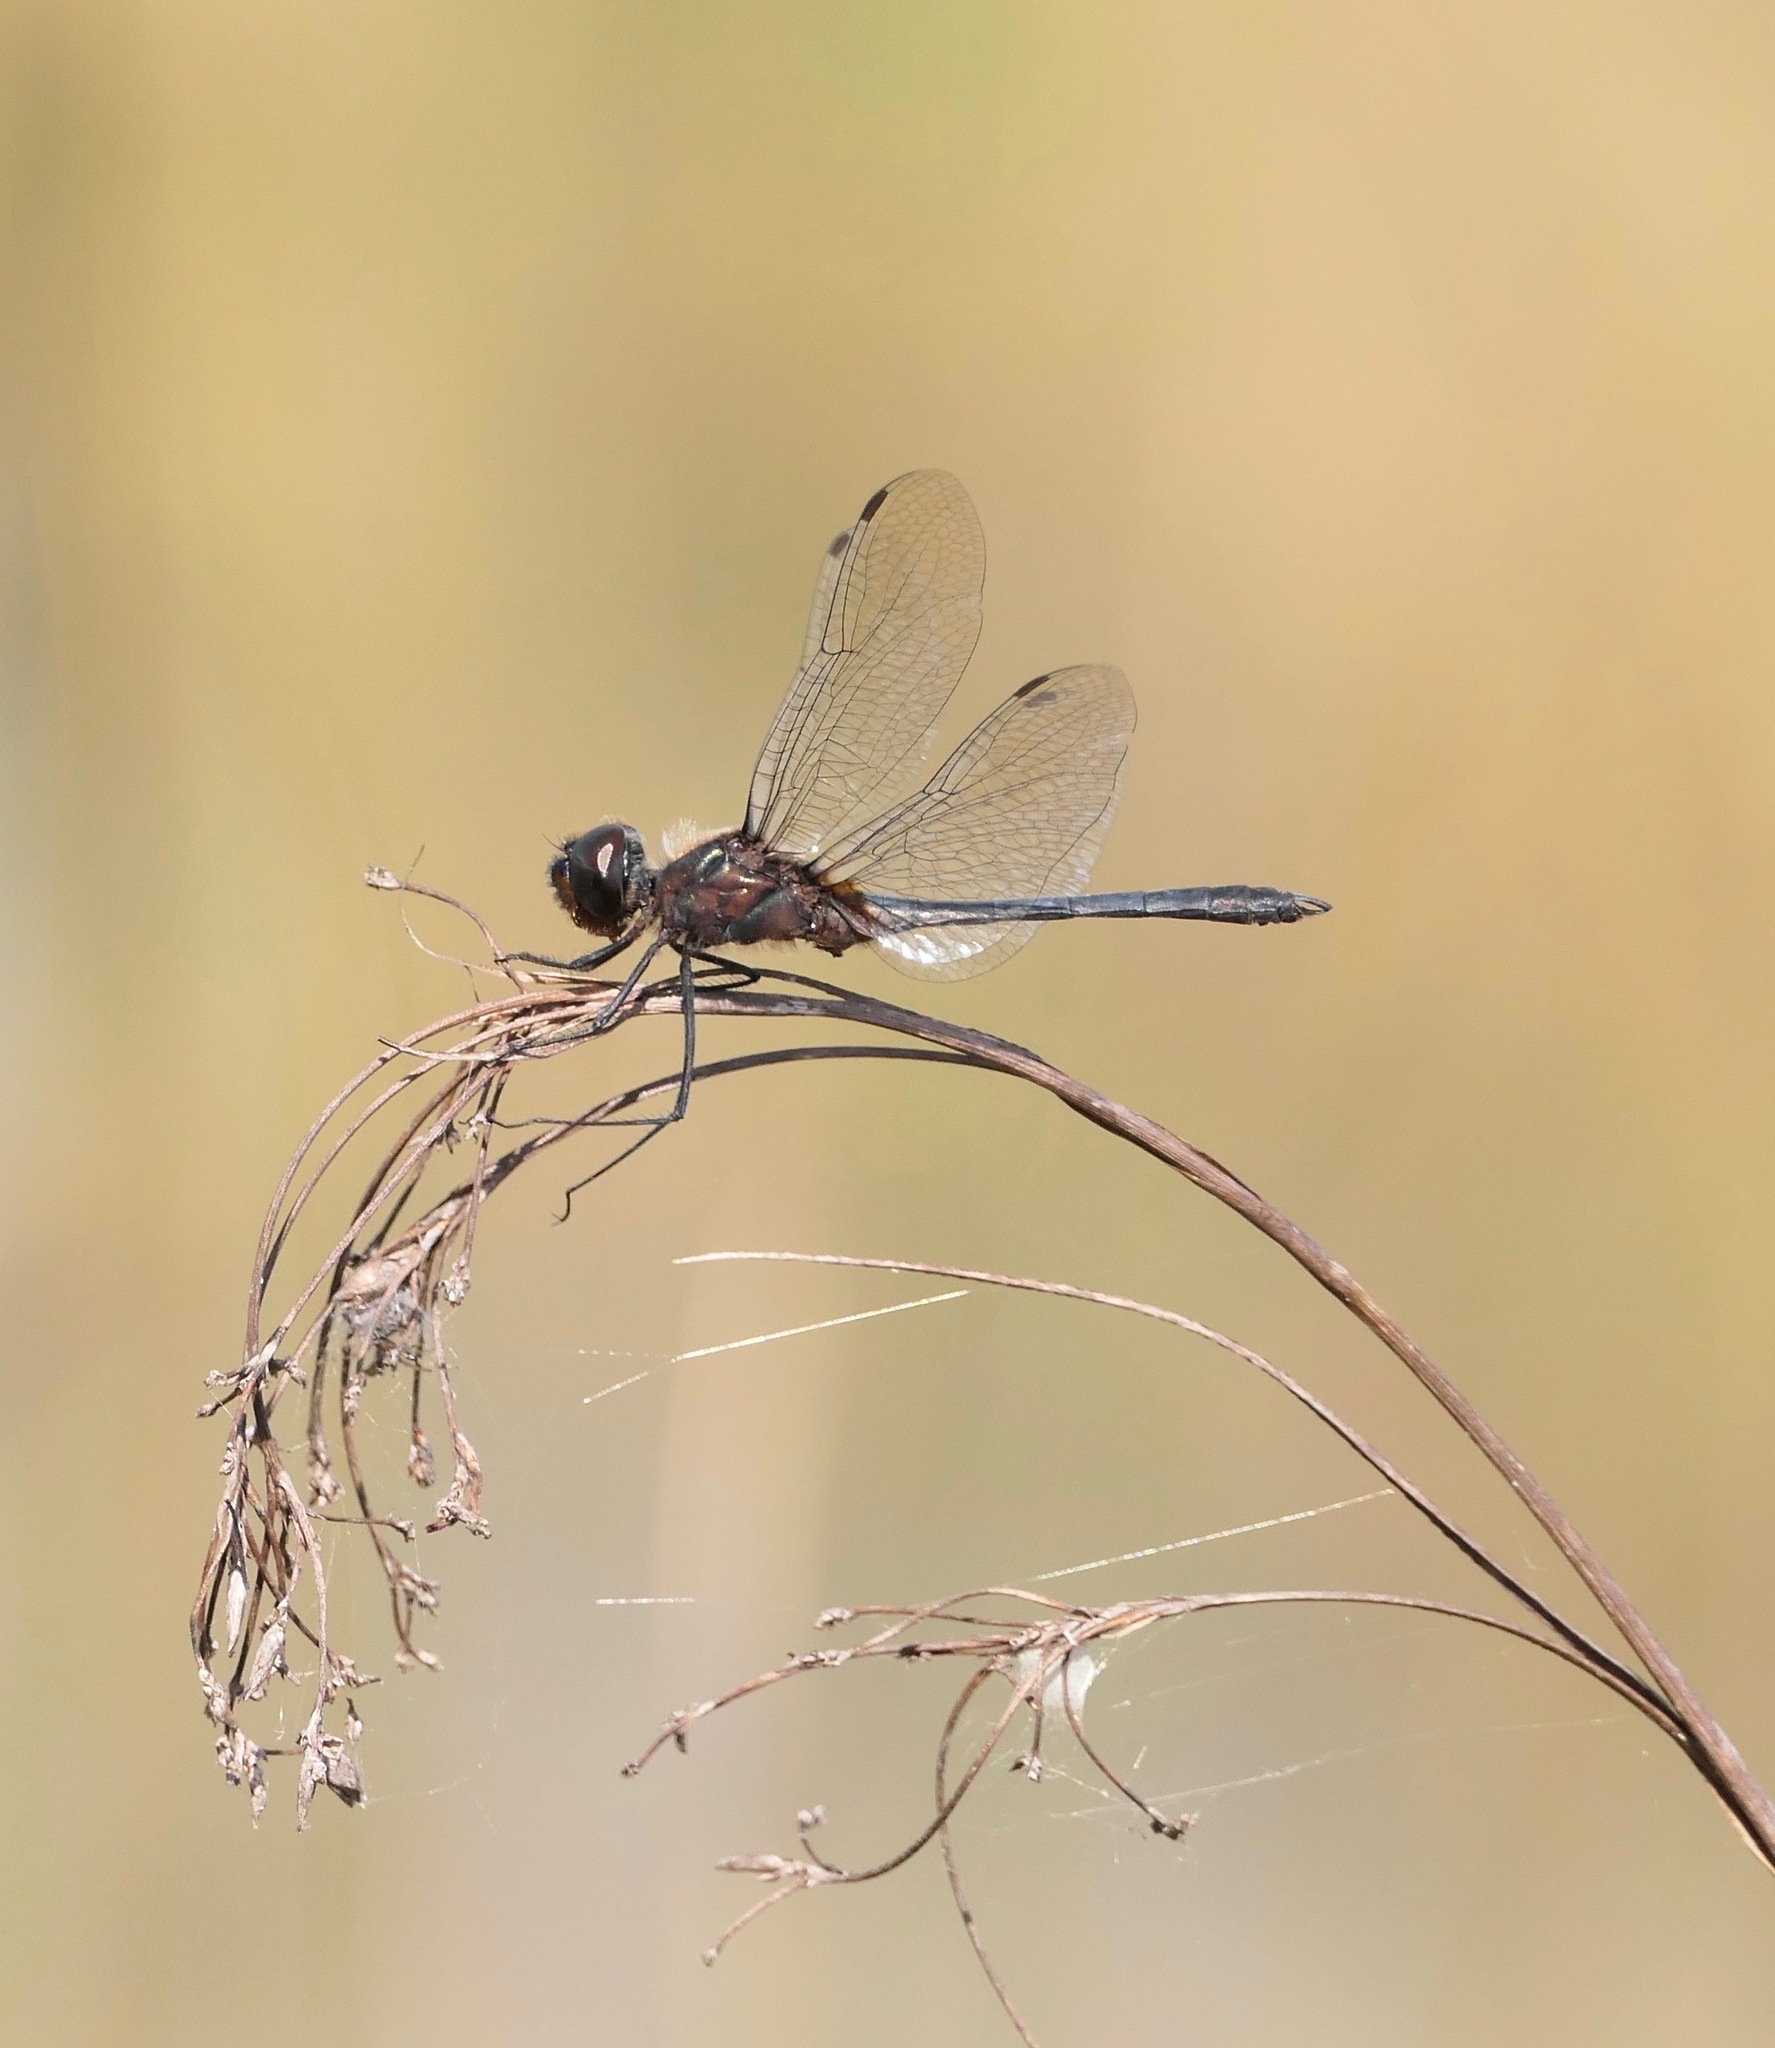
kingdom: Animalia
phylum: Arthropoda
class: Insecta
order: Odonata
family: Libellulidae
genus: Idiataphe
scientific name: Idiataphe cubensis
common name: Metallic pennant
